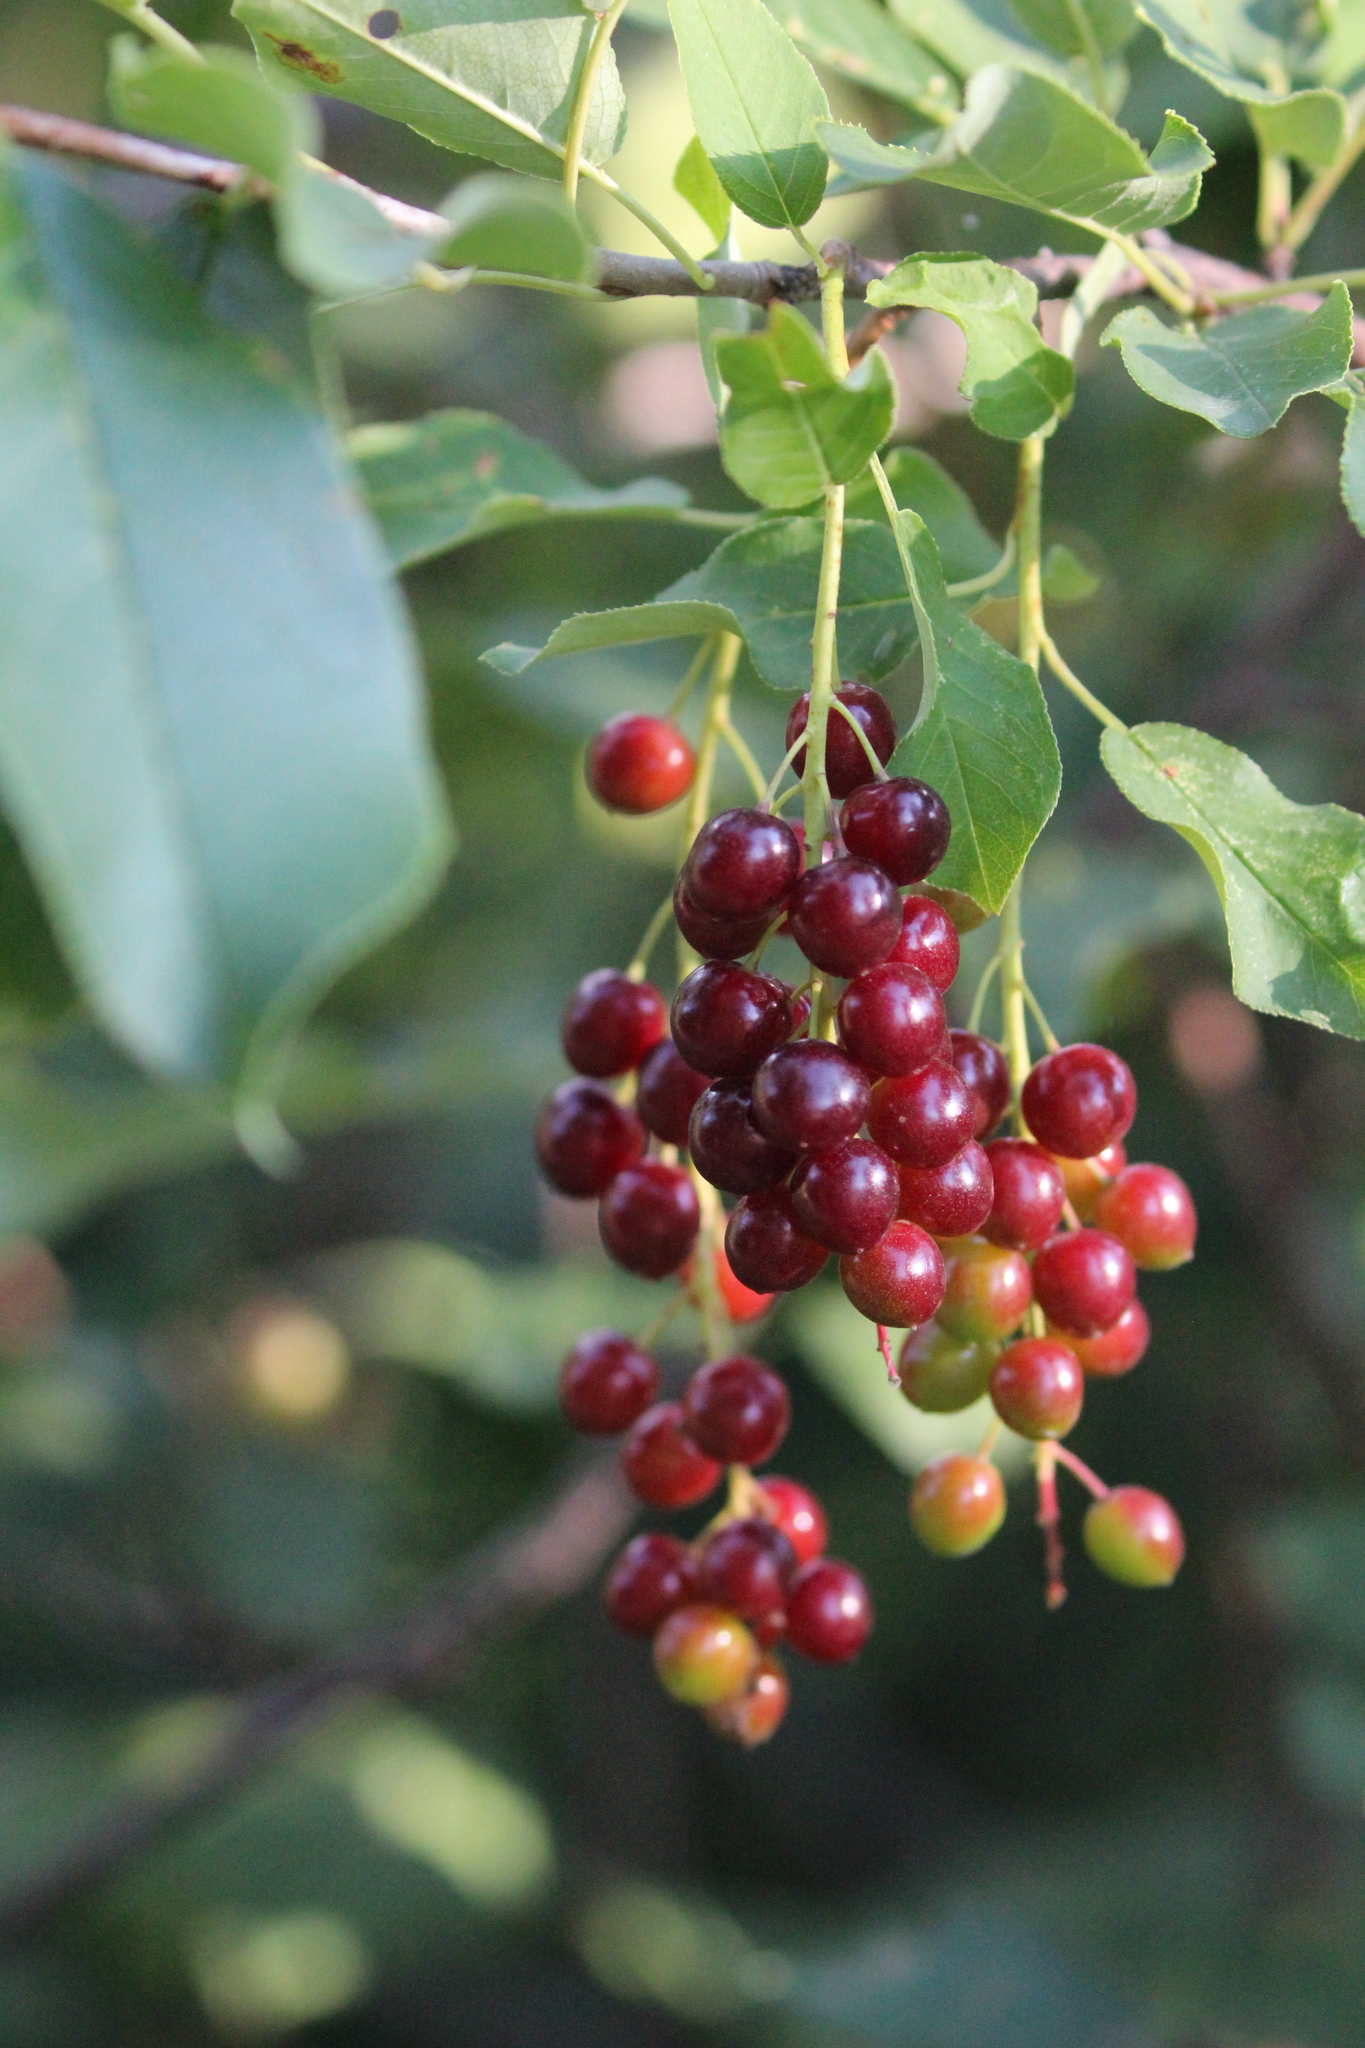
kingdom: Plantae
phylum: Tracheophyta
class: Magnoliopsida
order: Rosales
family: Rosaceae
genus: Prunus
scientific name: Prunus virginiana
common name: Chokecherry
